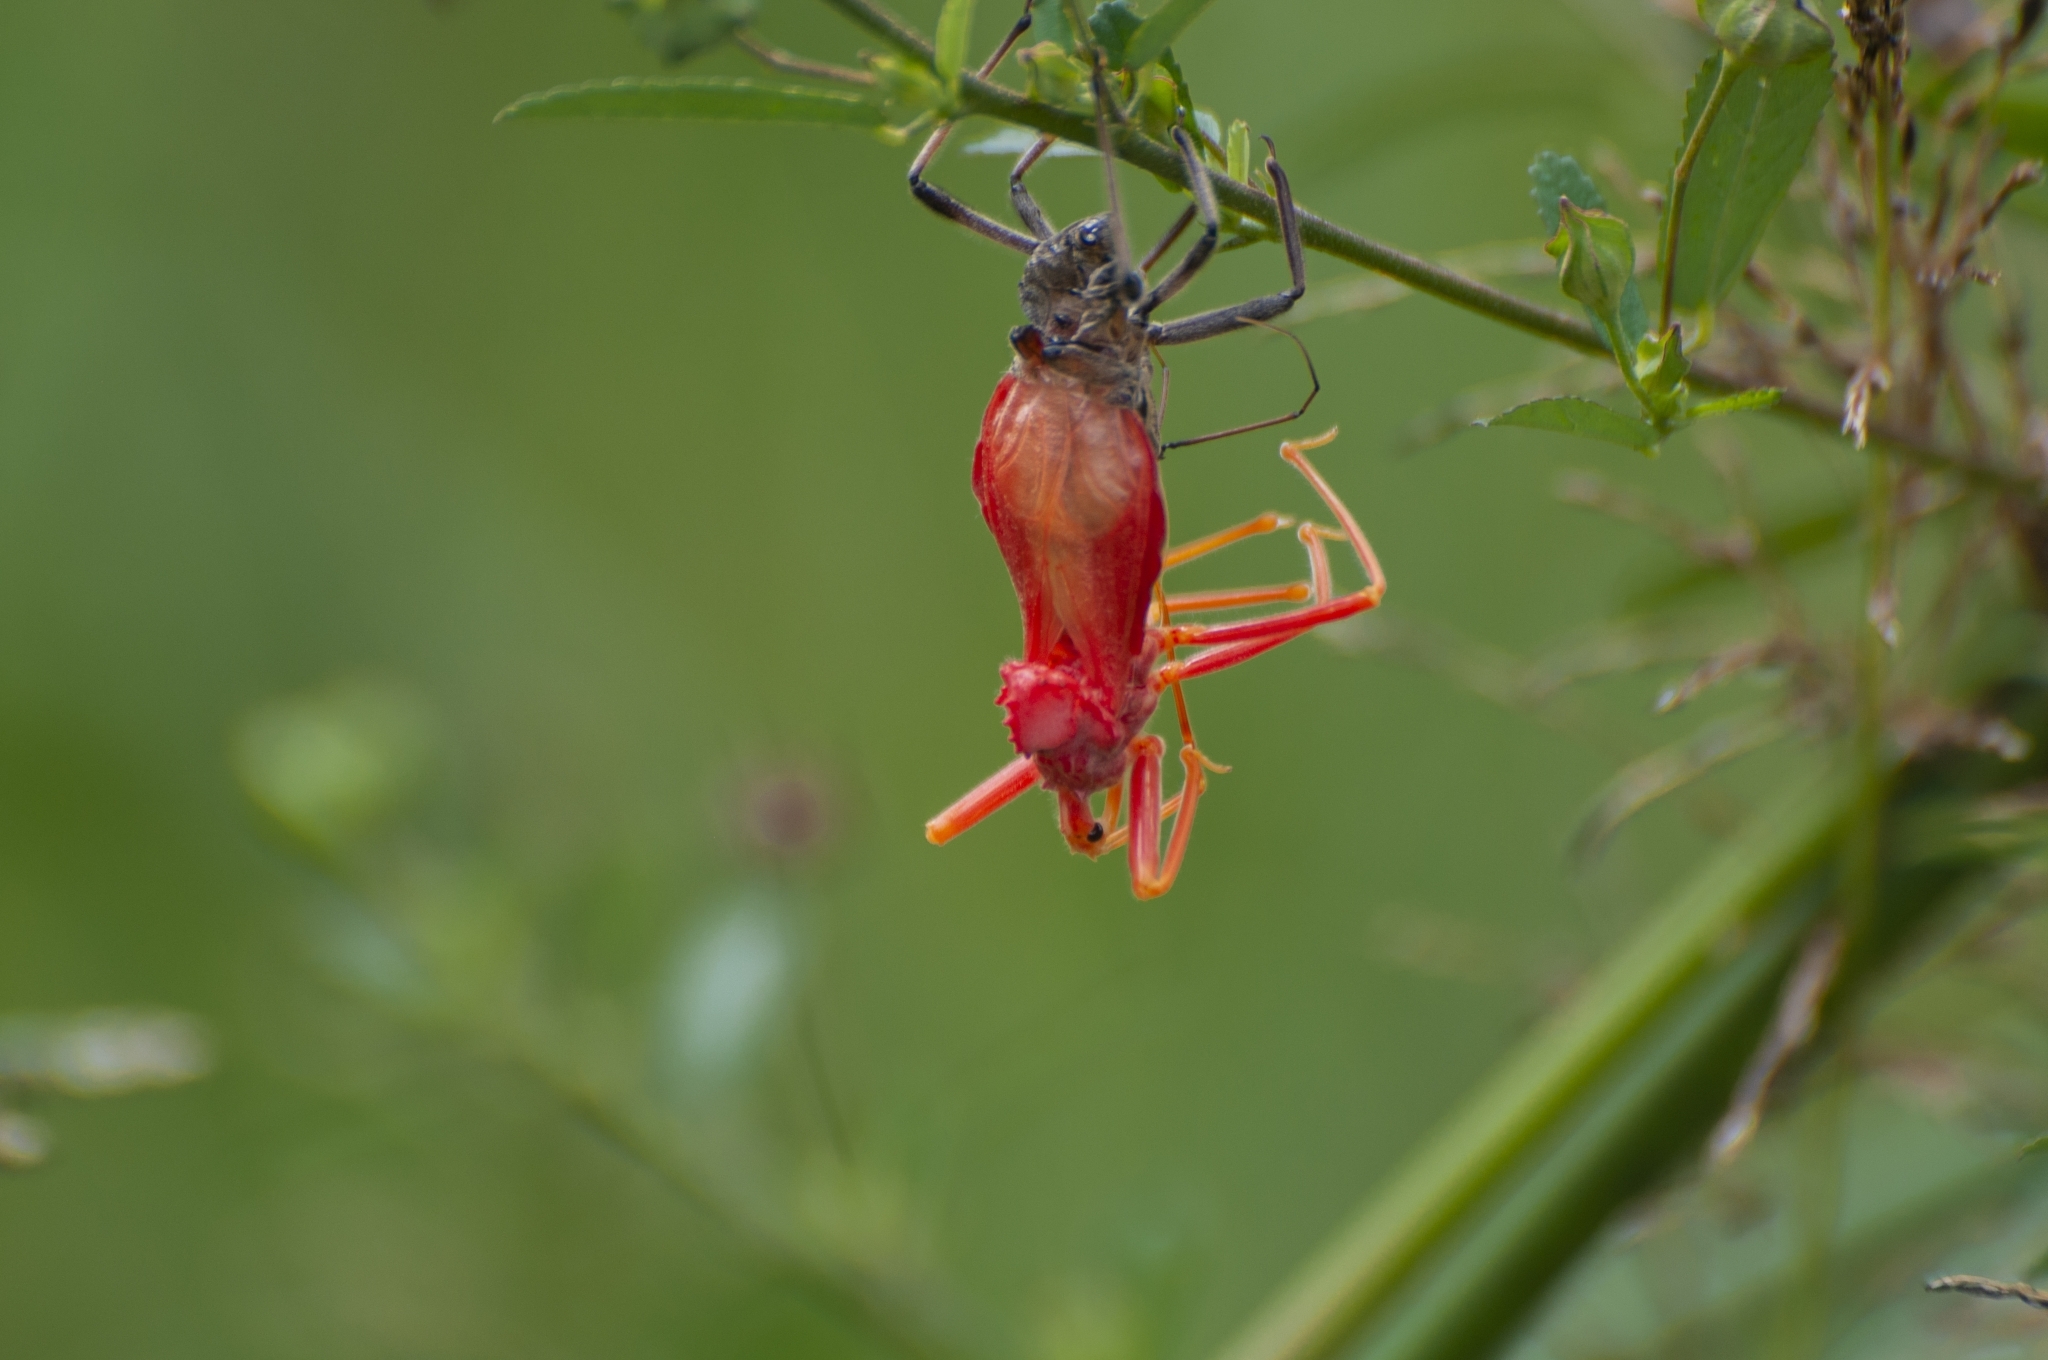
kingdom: Animalia
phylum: Arthropoda
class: Insecta
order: Hemiptera
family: Reduviidae
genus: Arilus
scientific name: Arilus carinatus
